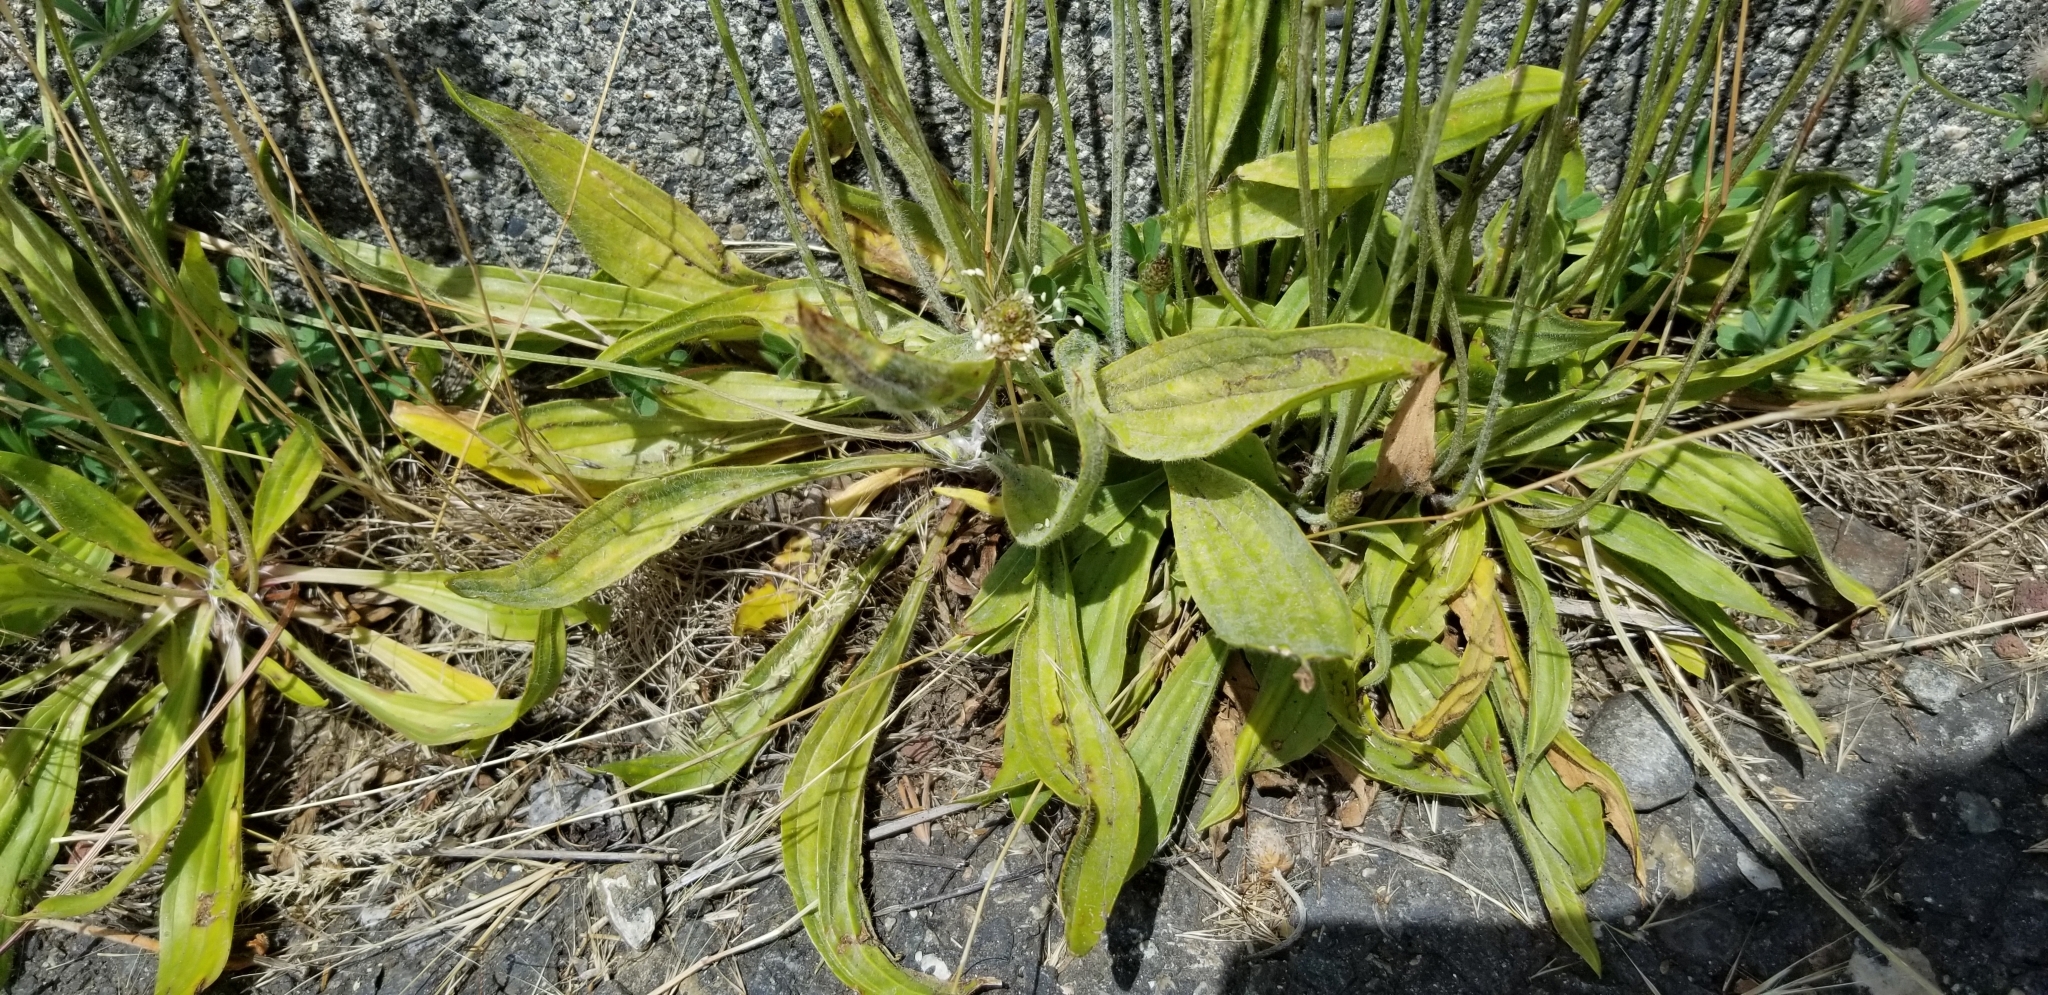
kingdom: Plantae
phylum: Tracheophyta
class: Magnoliopsida
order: Lamiales
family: Plantaginaceae
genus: Plantago
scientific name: Plantago lanceolata
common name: Ribwort plantain
